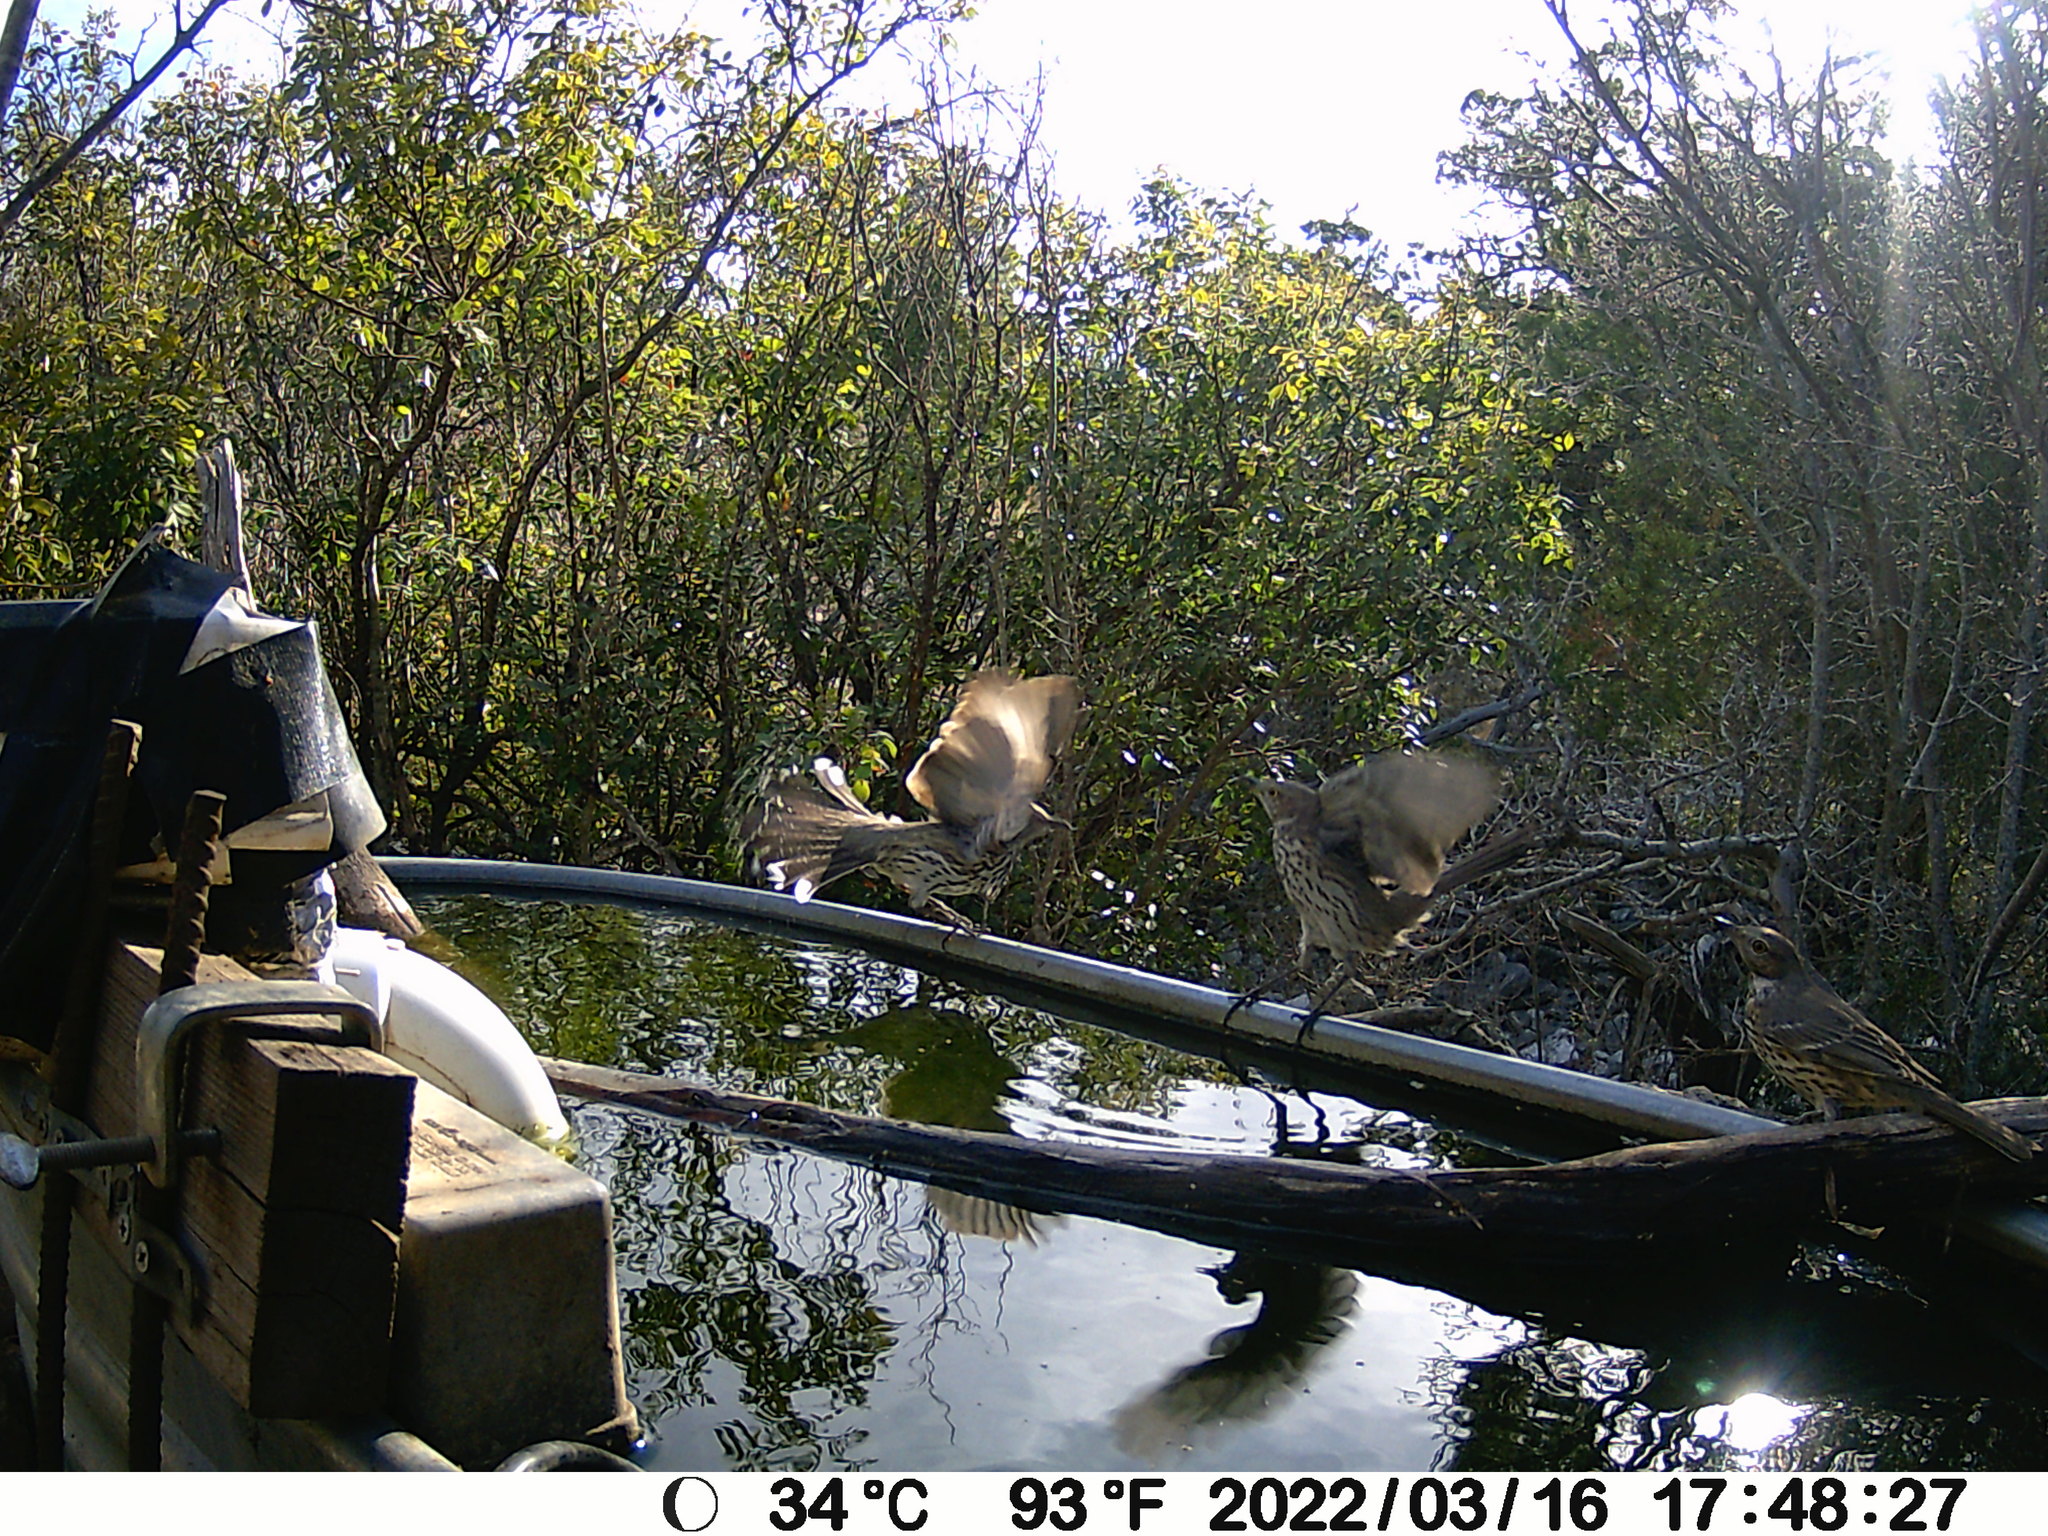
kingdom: Animalia
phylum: Chordata
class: Aves
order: Passeriformes
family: Mimidae
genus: Oreoscoptes
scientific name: Oreoscoptes montanus
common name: Sage thrasher
